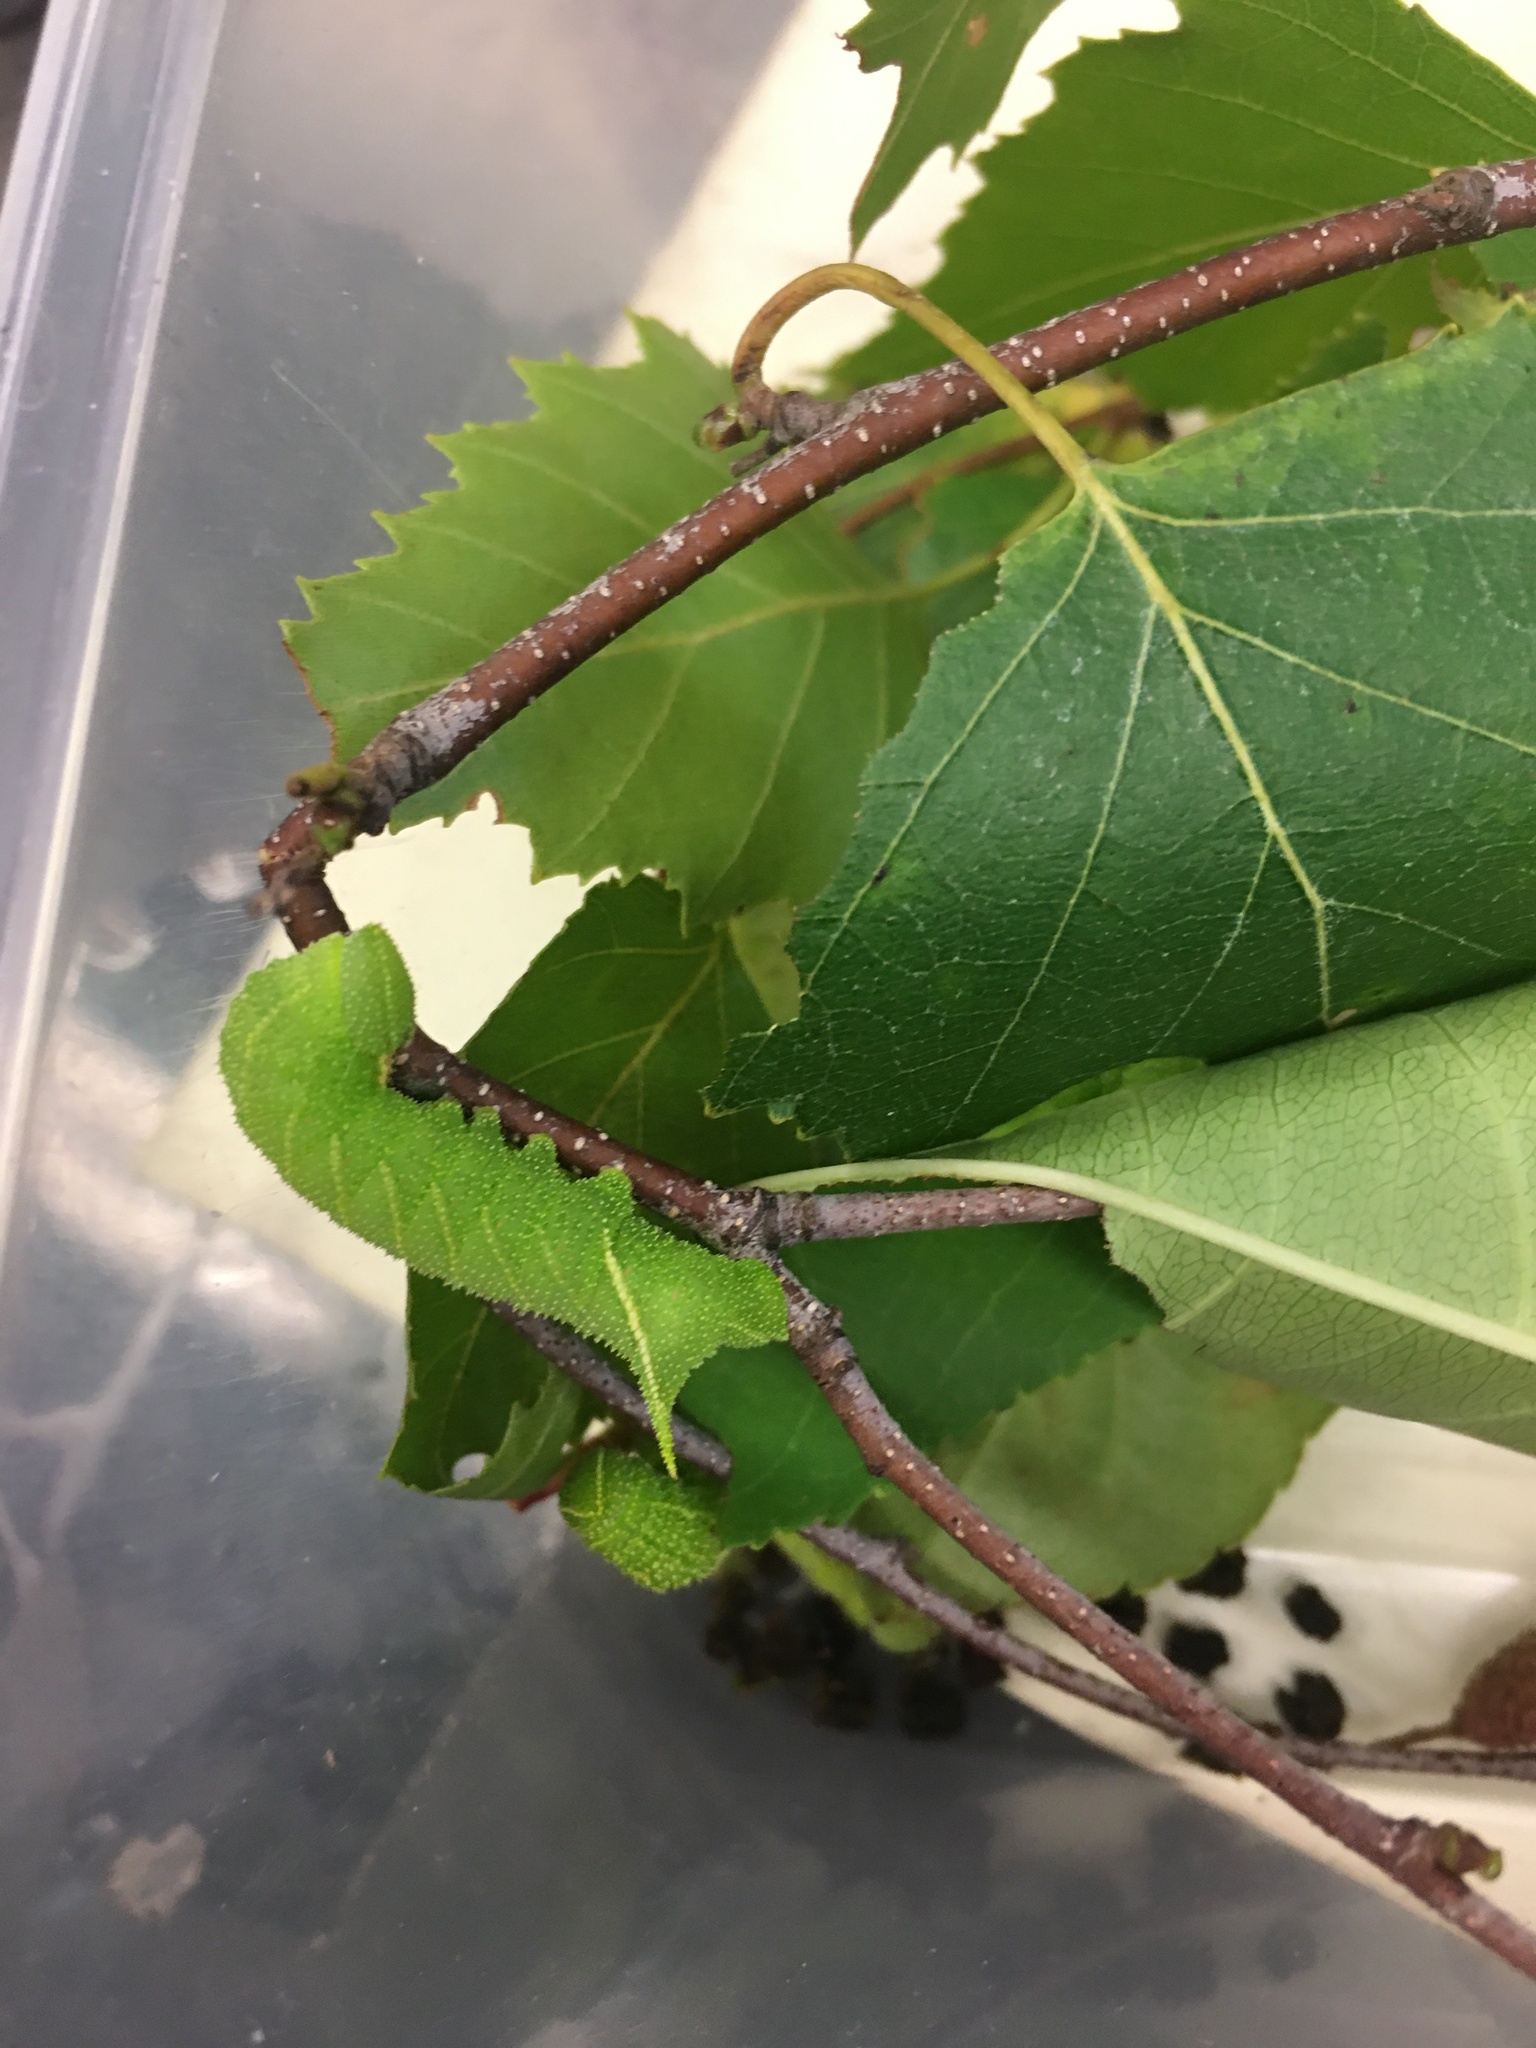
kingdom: Animalia
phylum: Arthropoda
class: Insecta
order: Lepidoptera
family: Sphingidae
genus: Paonias
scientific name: Paonias excaecata
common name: Blind-eyed sphinx
